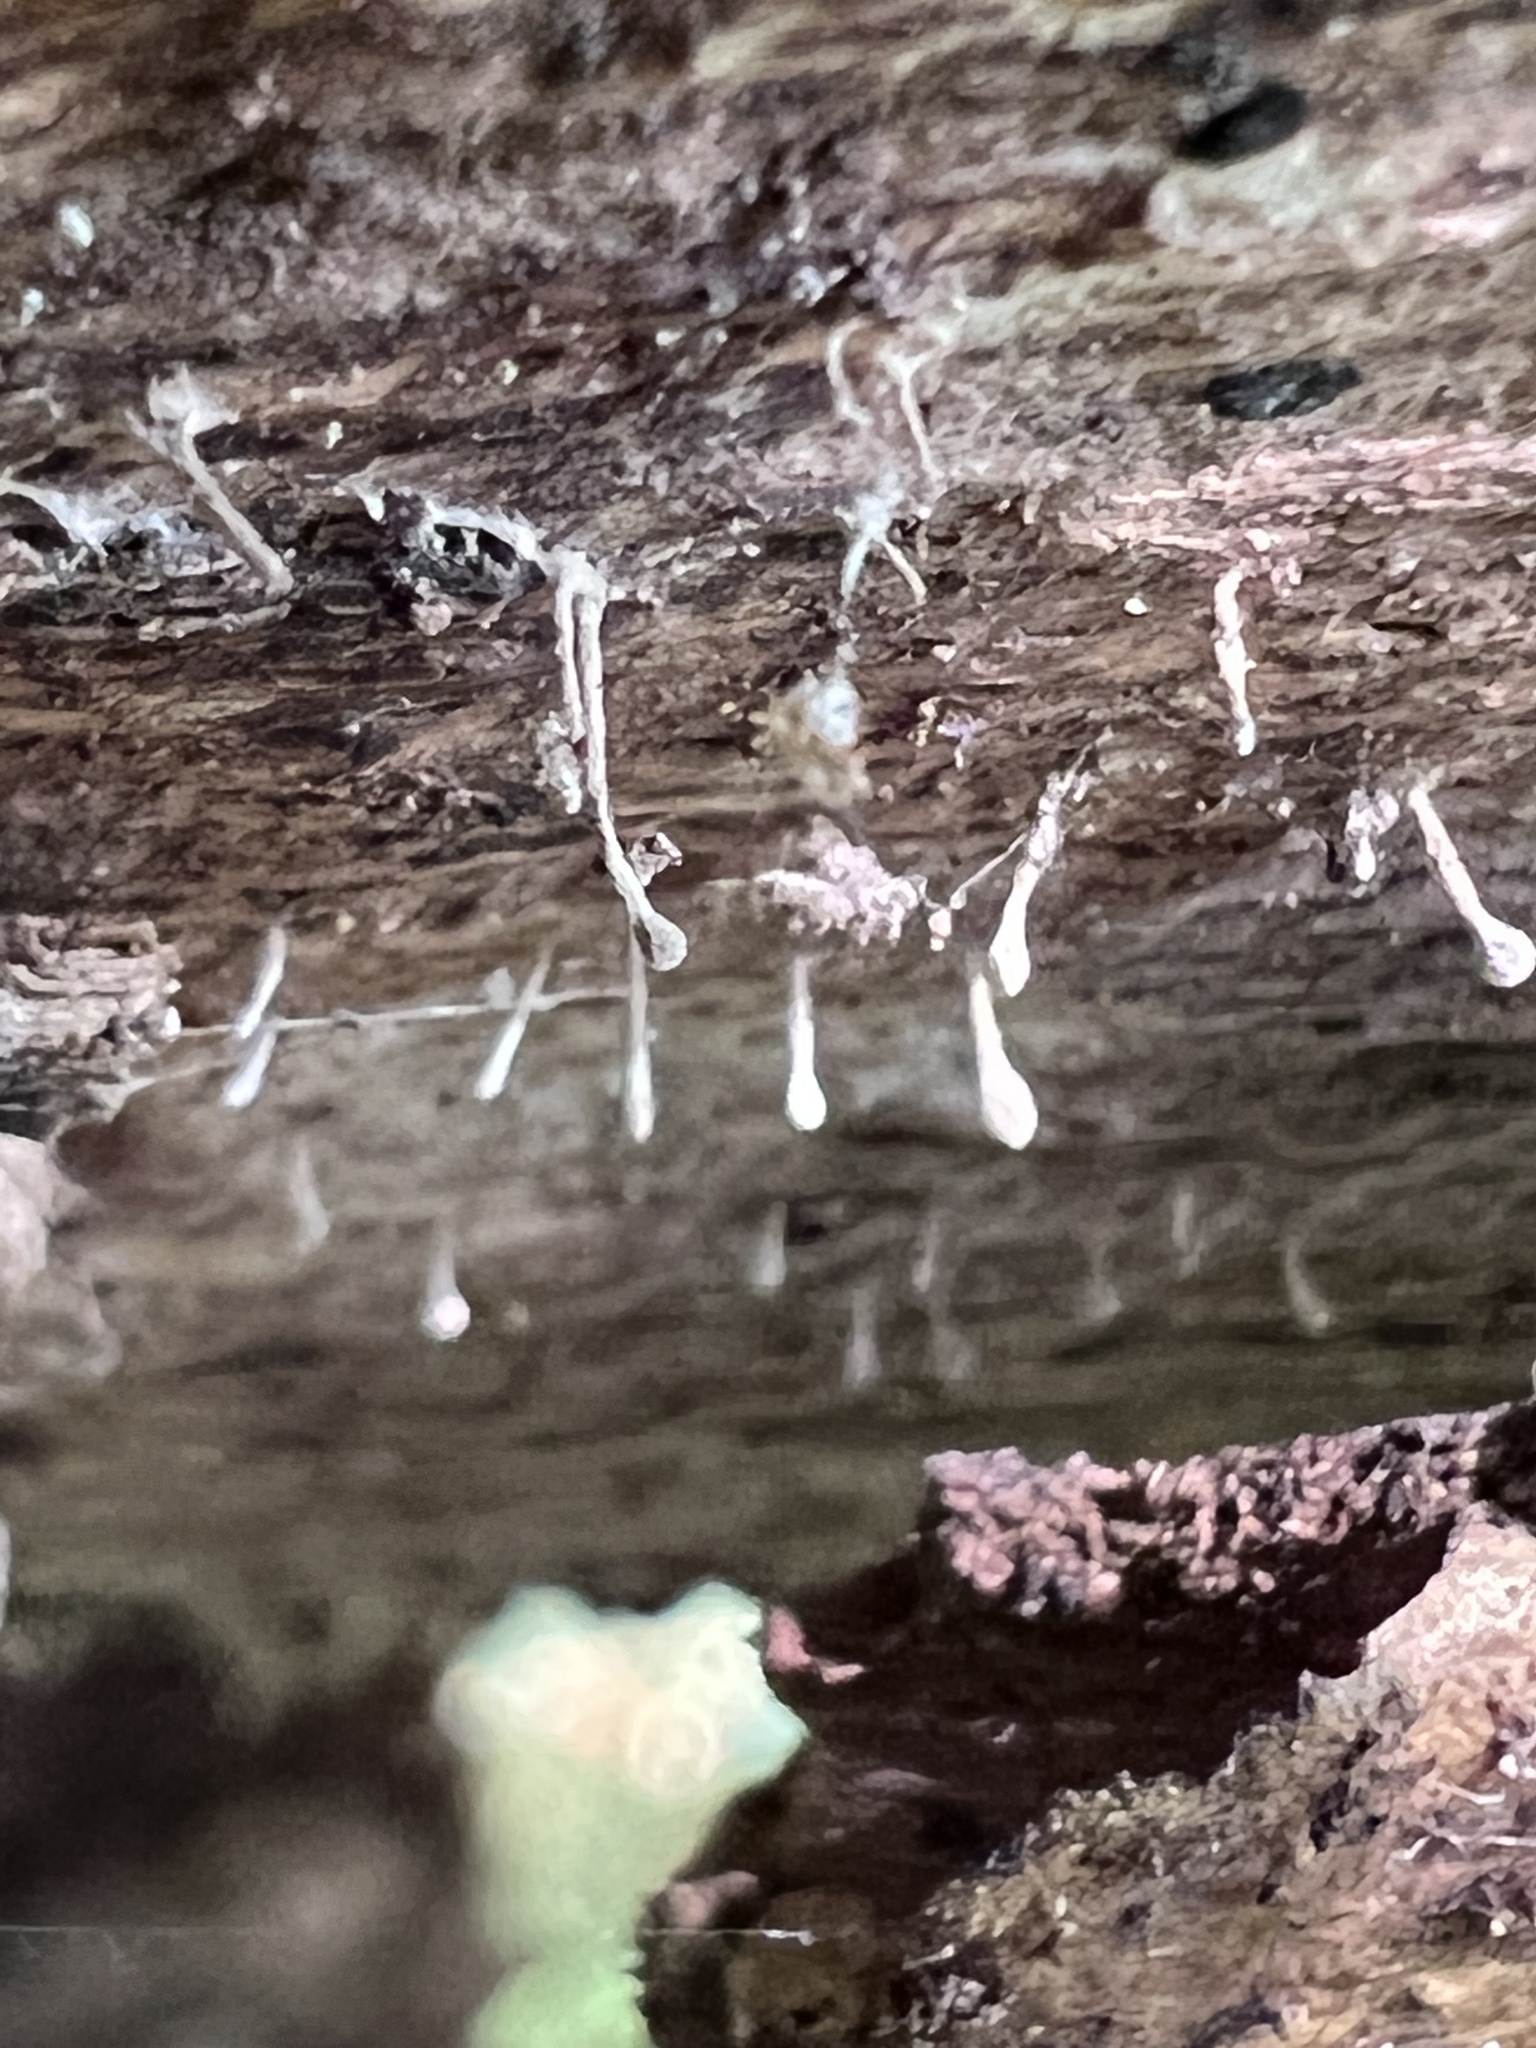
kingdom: Fungi
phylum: Basidiomycota
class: Atractiellomycetes
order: Atractiellales
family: Phleogenaceae
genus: Phleogena
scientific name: Phleogena faginea
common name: Fenugreek stalkball
